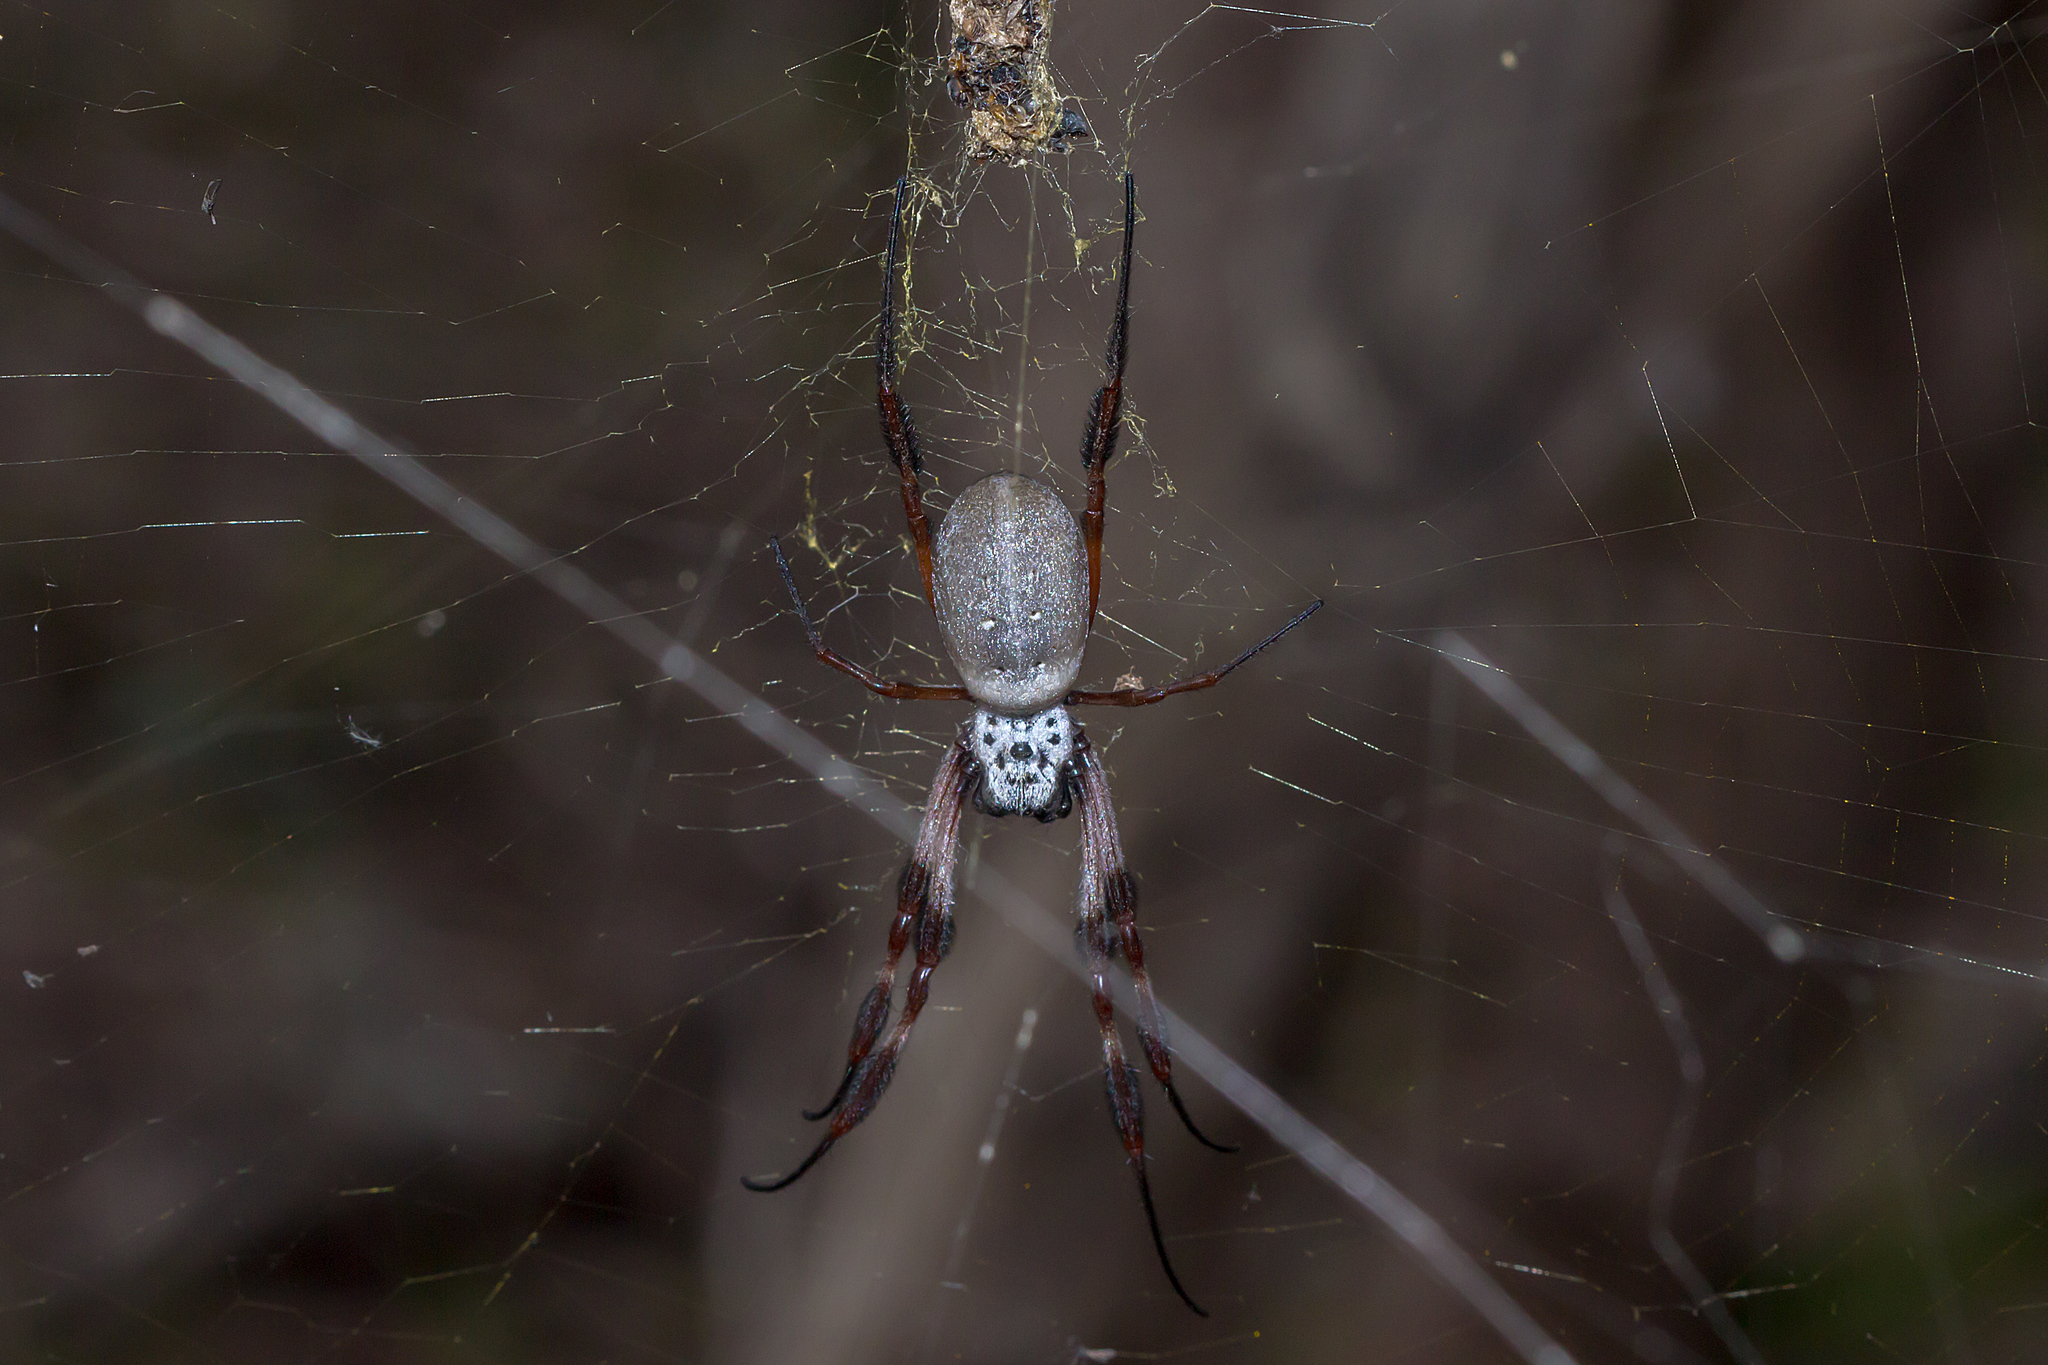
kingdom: Animalia
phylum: Arthropoda
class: Arachnida
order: Araneae
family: Araneidae
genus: Trichonephila
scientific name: Trichonephila edulis
